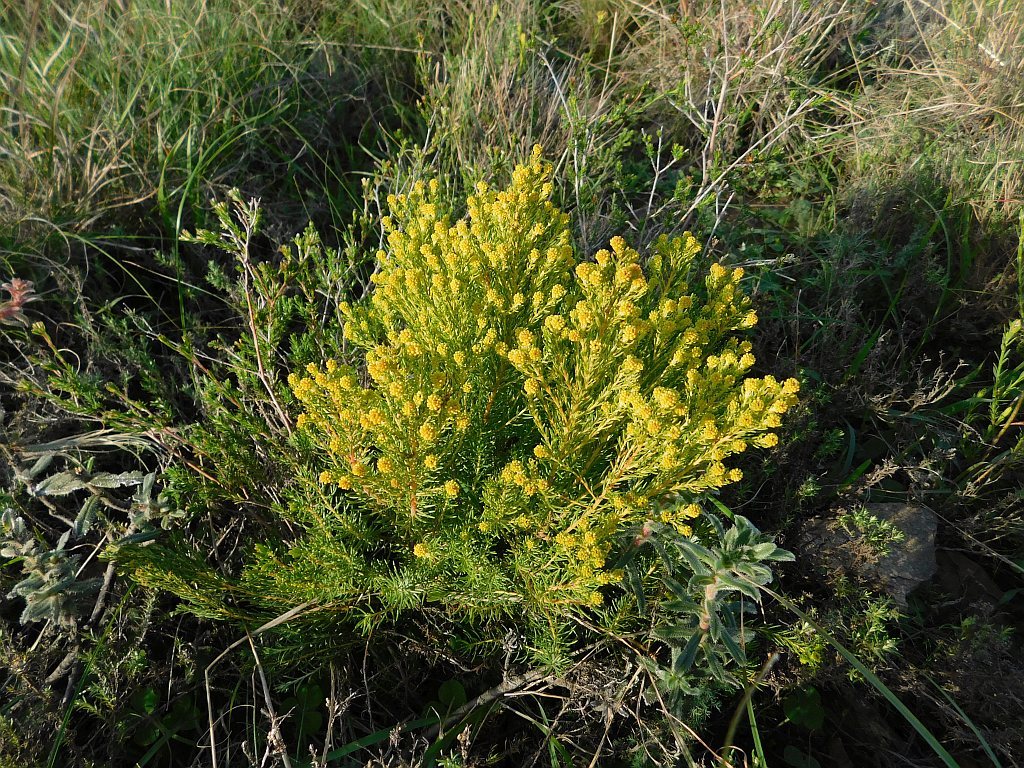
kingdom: Plantae
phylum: Tracheophyta
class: Magnoliopsida
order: Proteales
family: Proteaceae
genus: Leucadendron
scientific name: Leucadendron teretifolium
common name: Needle-leaf conebush
